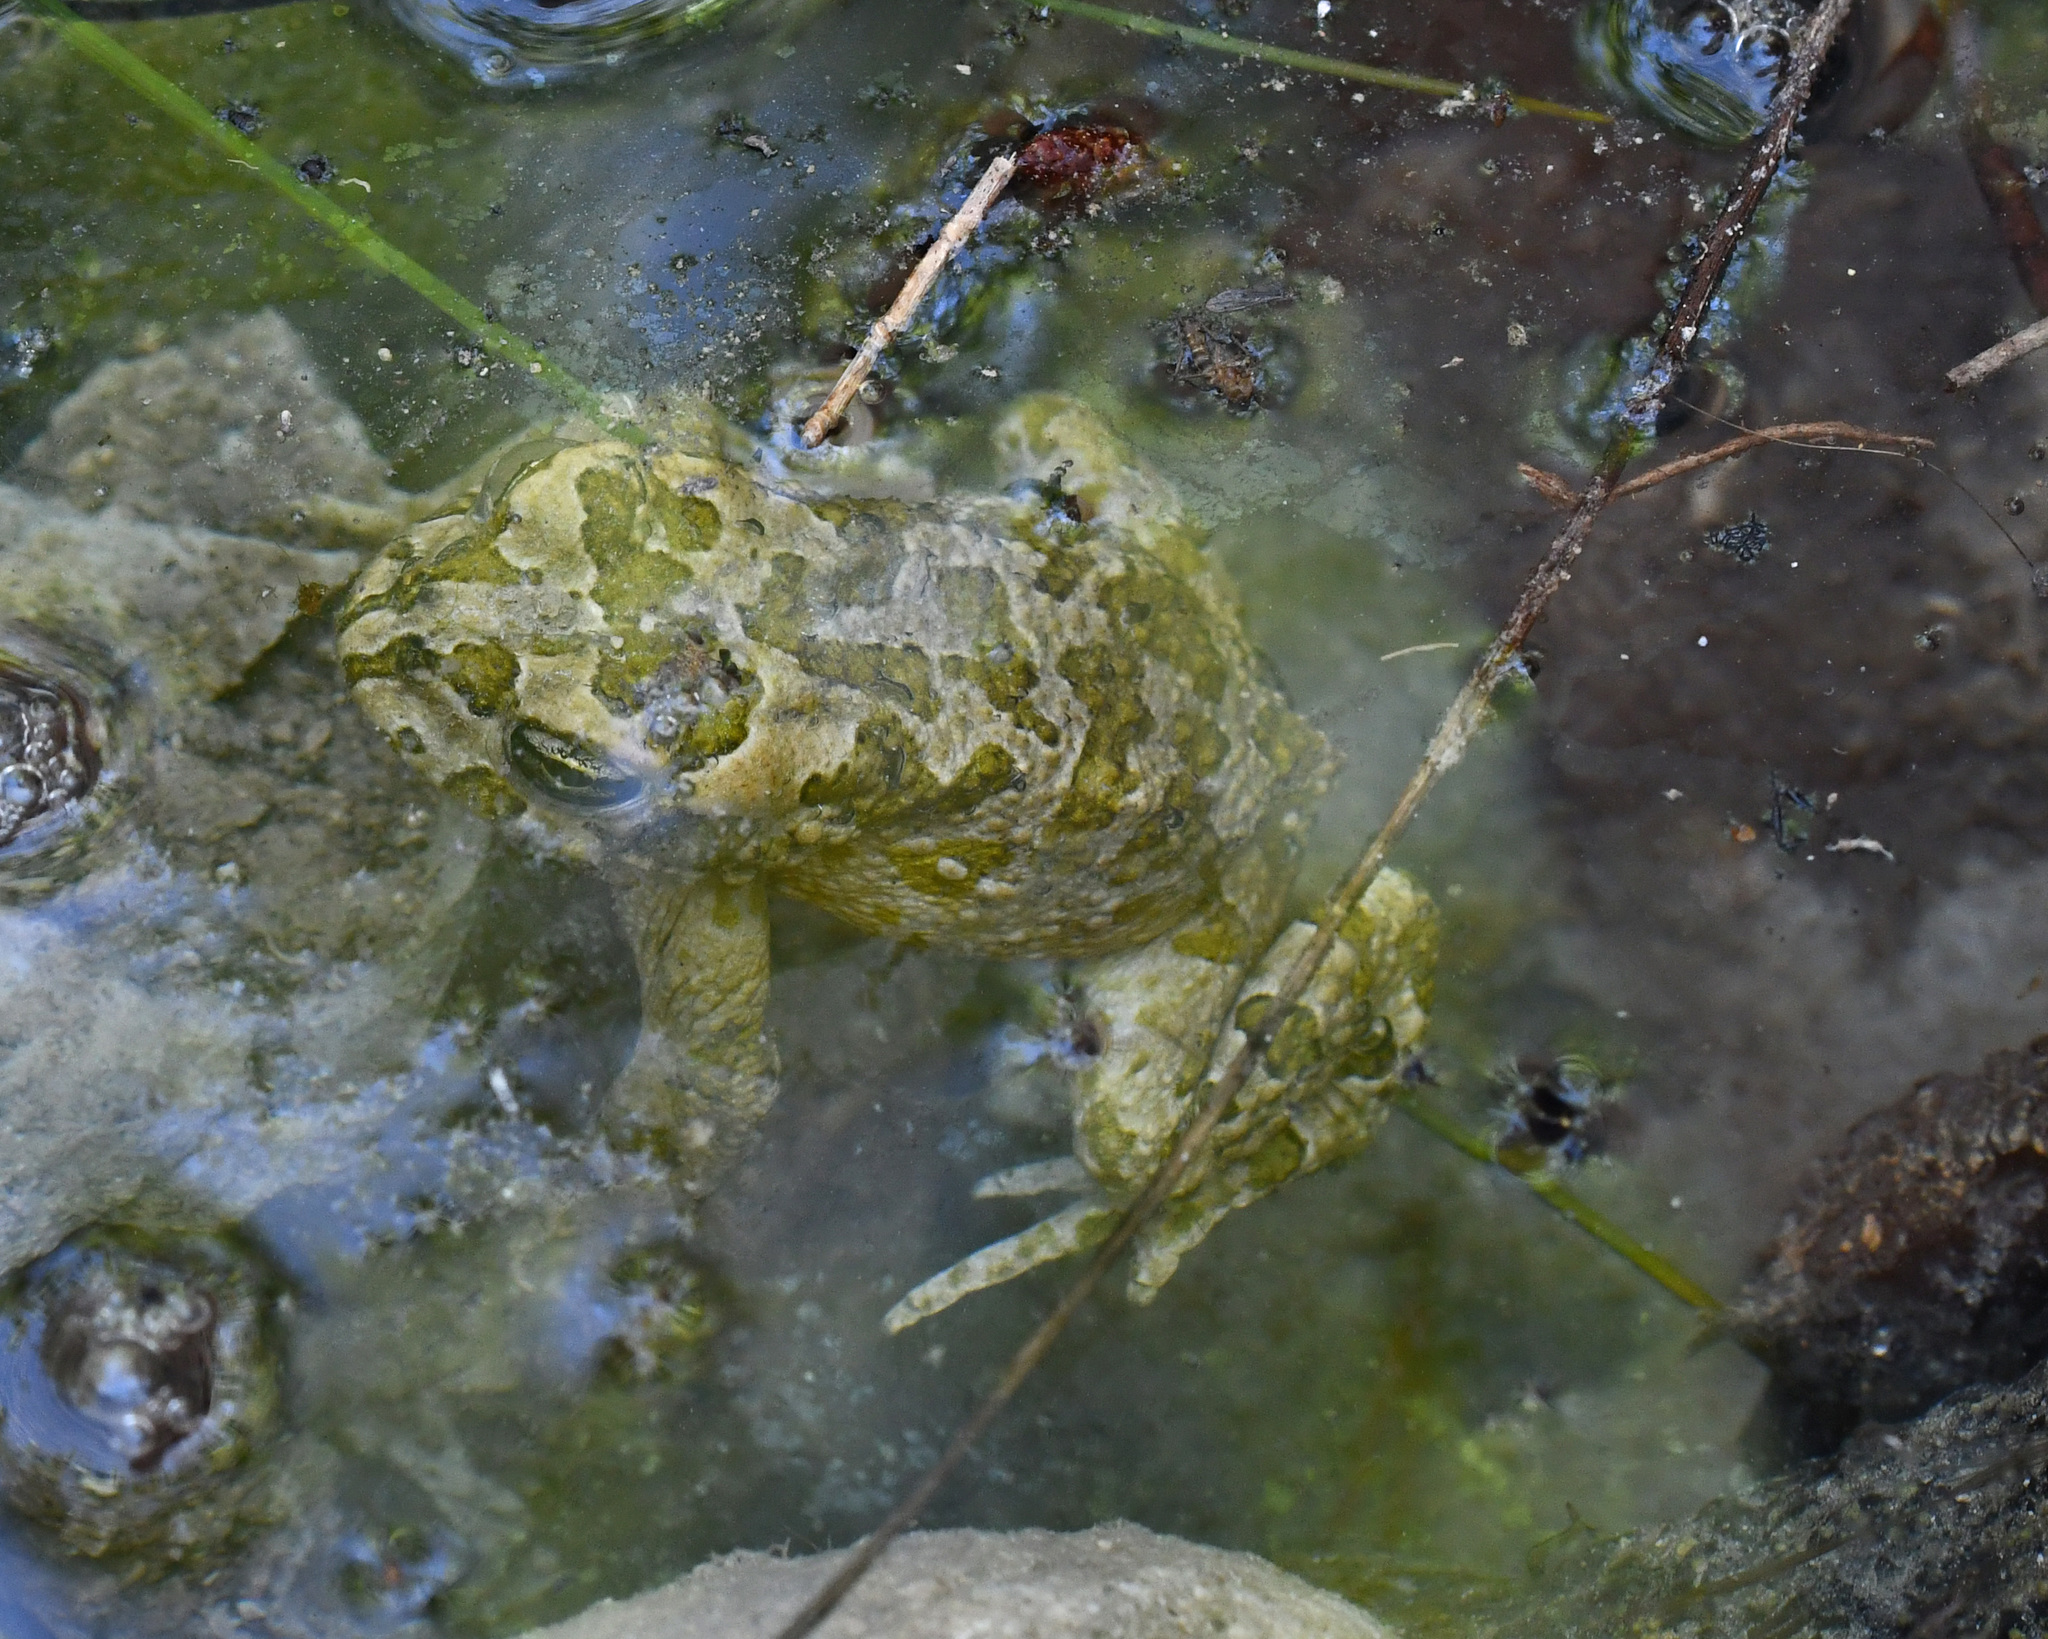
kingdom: Animalia
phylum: Chordata
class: Amphibia
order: Anura
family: Bufonidae
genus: Bufotes
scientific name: Bufotes cypriensis
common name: Cyprus green toad
